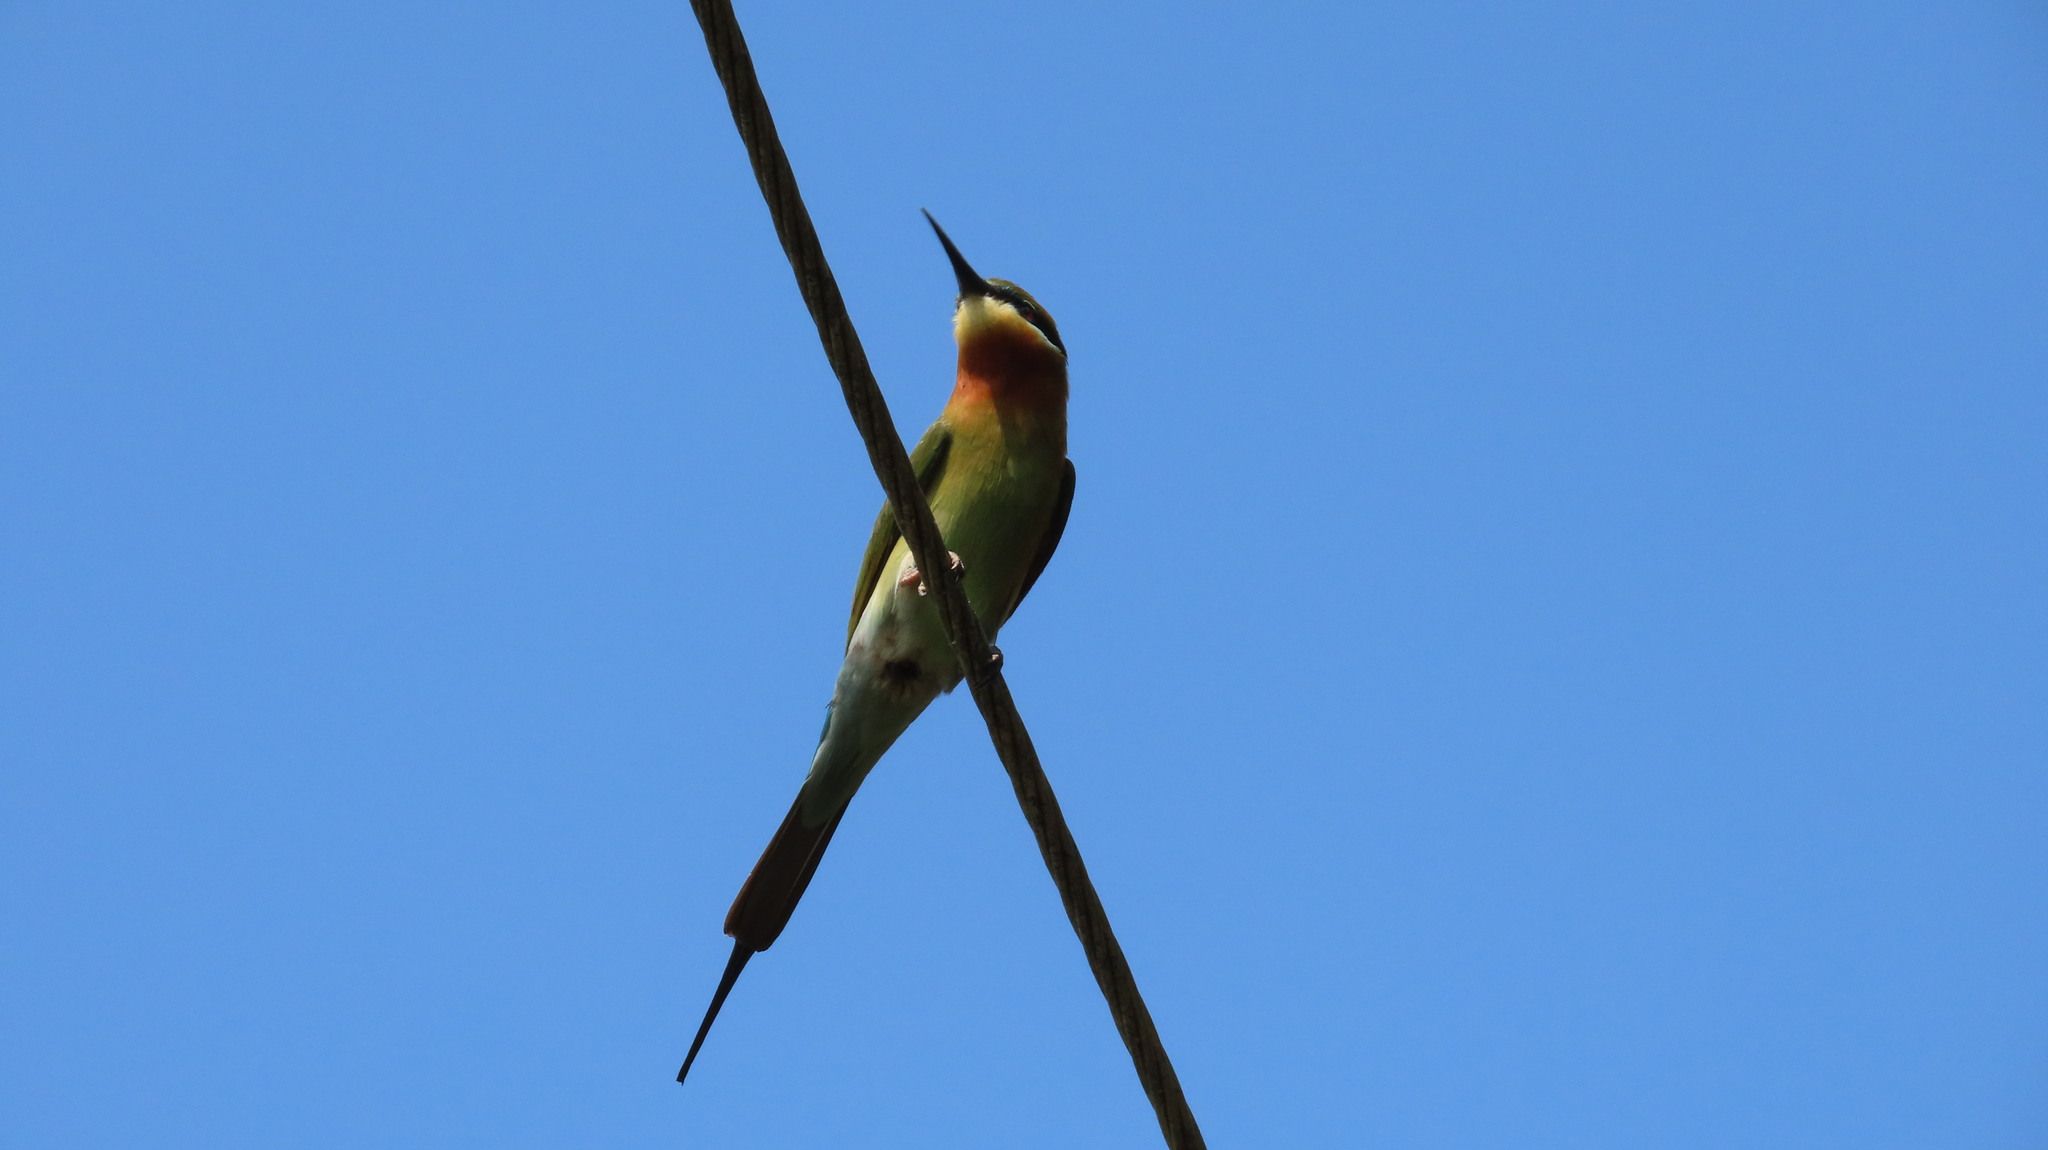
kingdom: Animalia
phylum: Chordata
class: Aves
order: Coraciiformes
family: Meropidae
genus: Merops
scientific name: Merops philippinus
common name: Blue-tailed bee-eater
